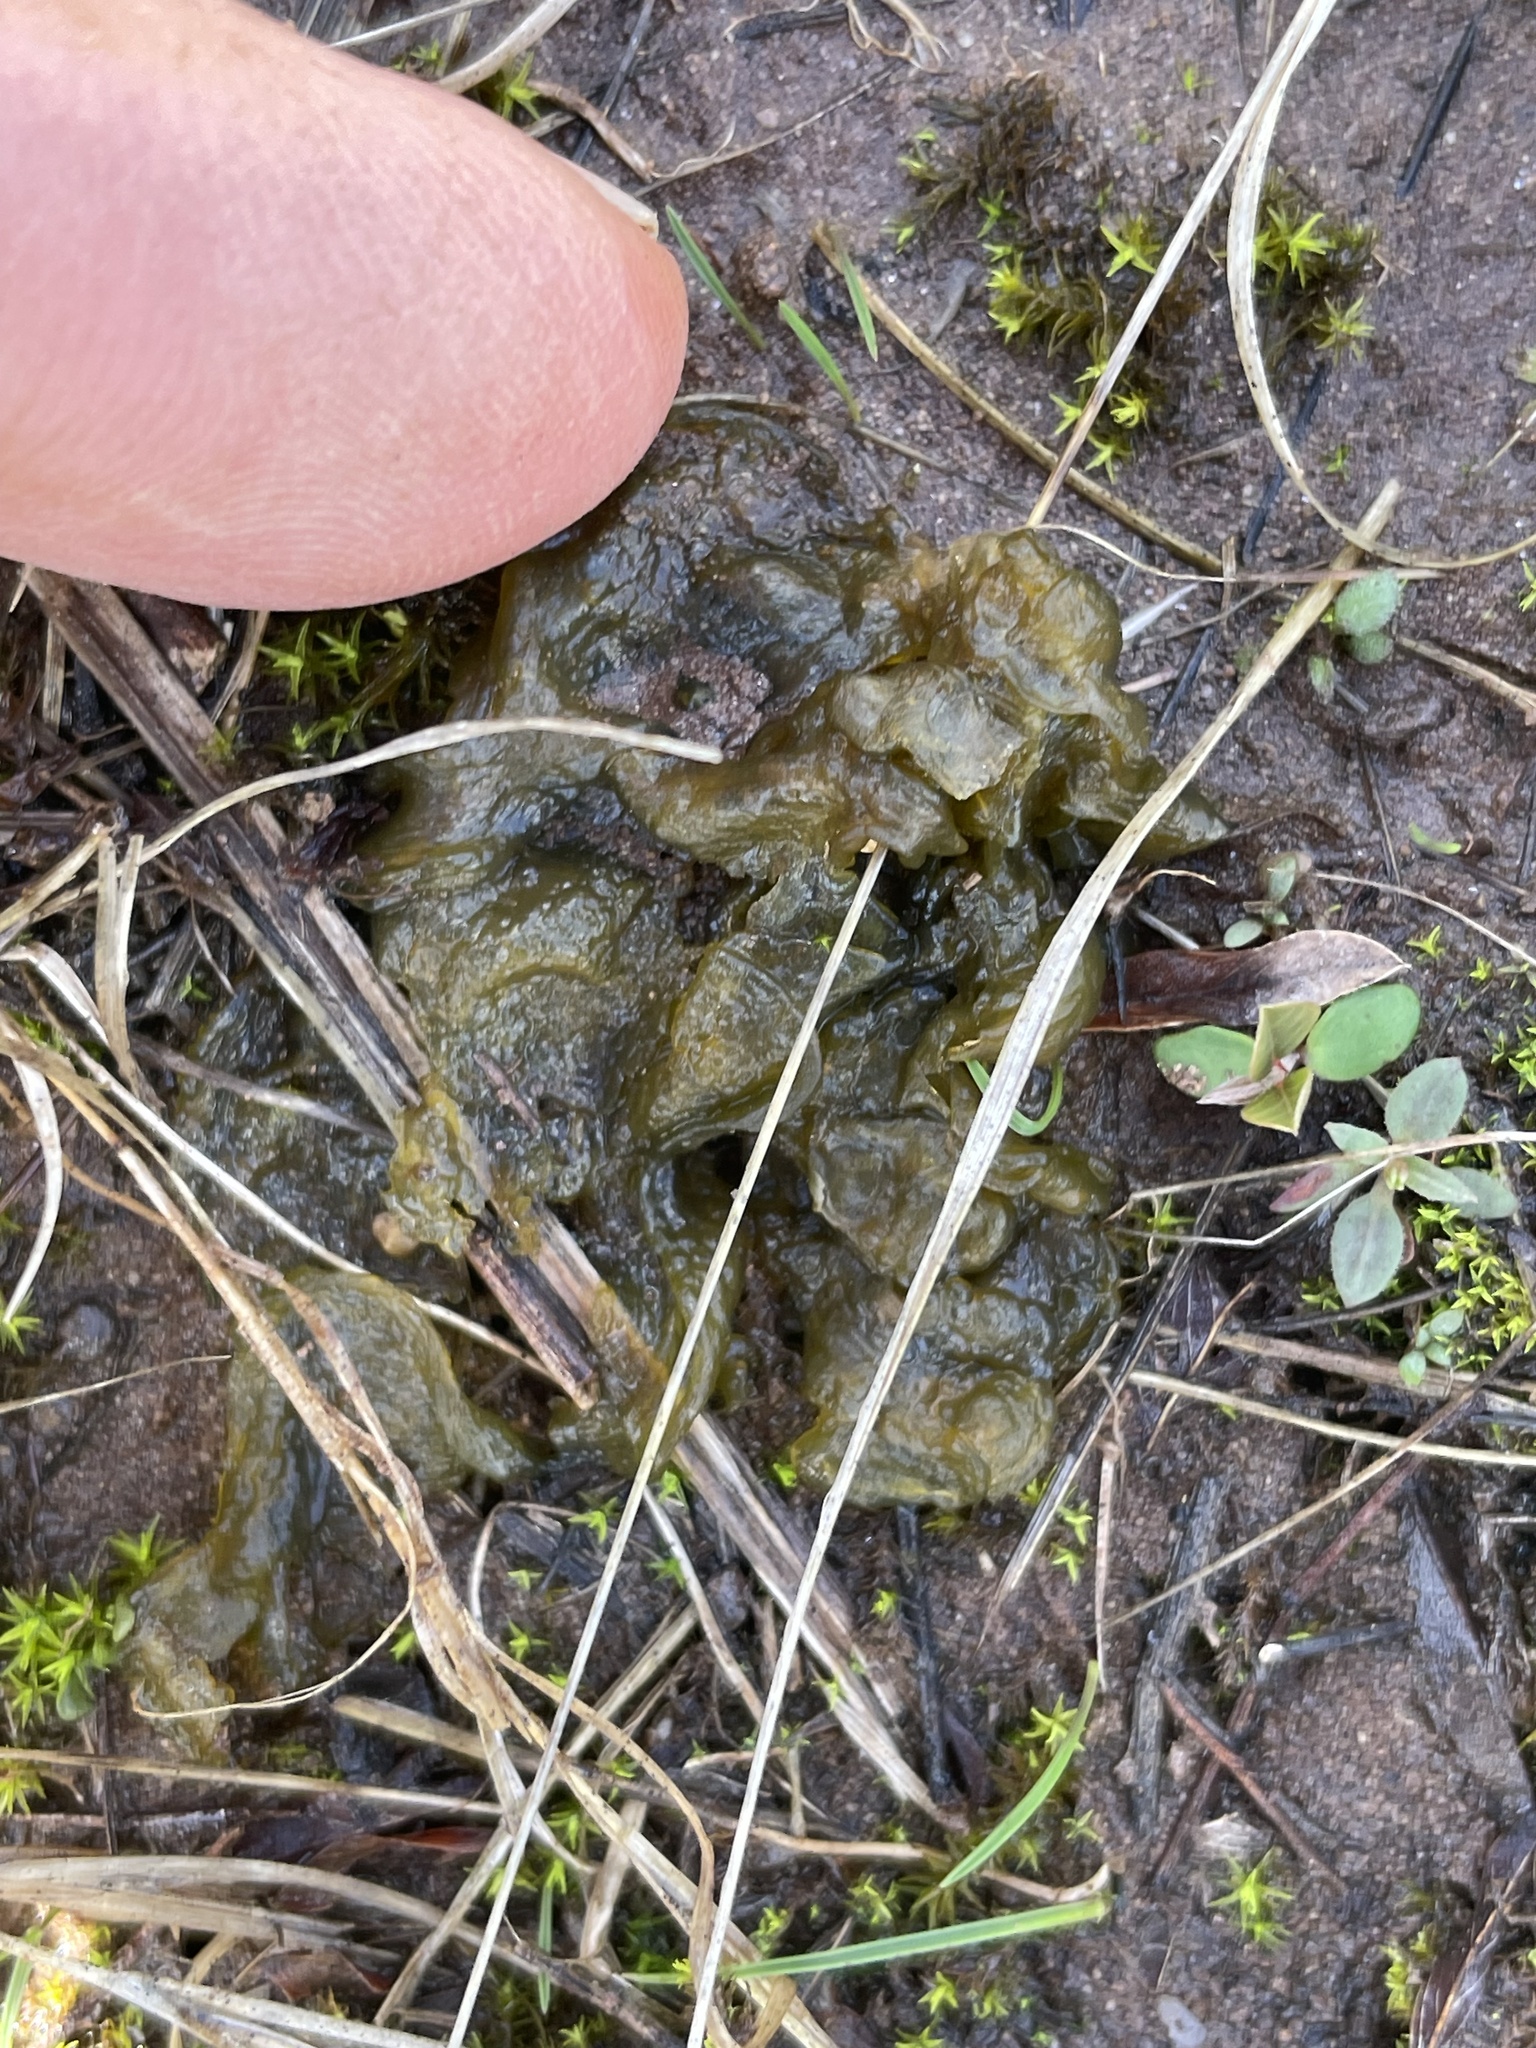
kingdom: Bacteria
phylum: Cyanobacteria
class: Cyanobacteriia
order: Cyanobacteriales
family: Nostocaceae
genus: Nostoc
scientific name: Nostoc commune
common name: Star jelly
